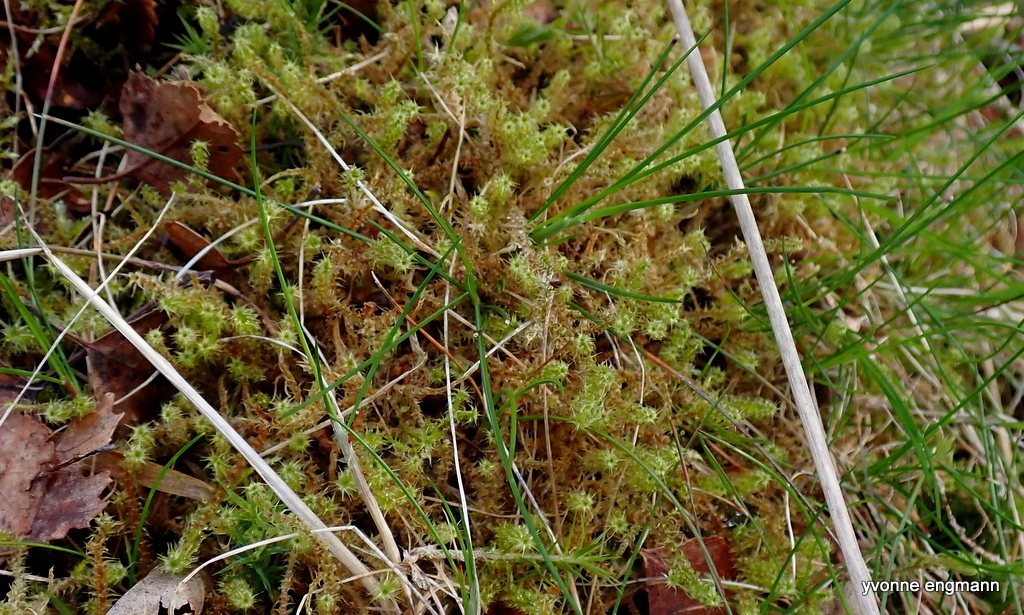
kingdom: Plantae
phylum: Bryophyta
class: Bryopsida
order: Hypnales
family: Hylocomiaceae
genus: Rhytidiadelphus
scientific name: Rhytidiadelphus squarrosus
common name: Springy turf-moss
